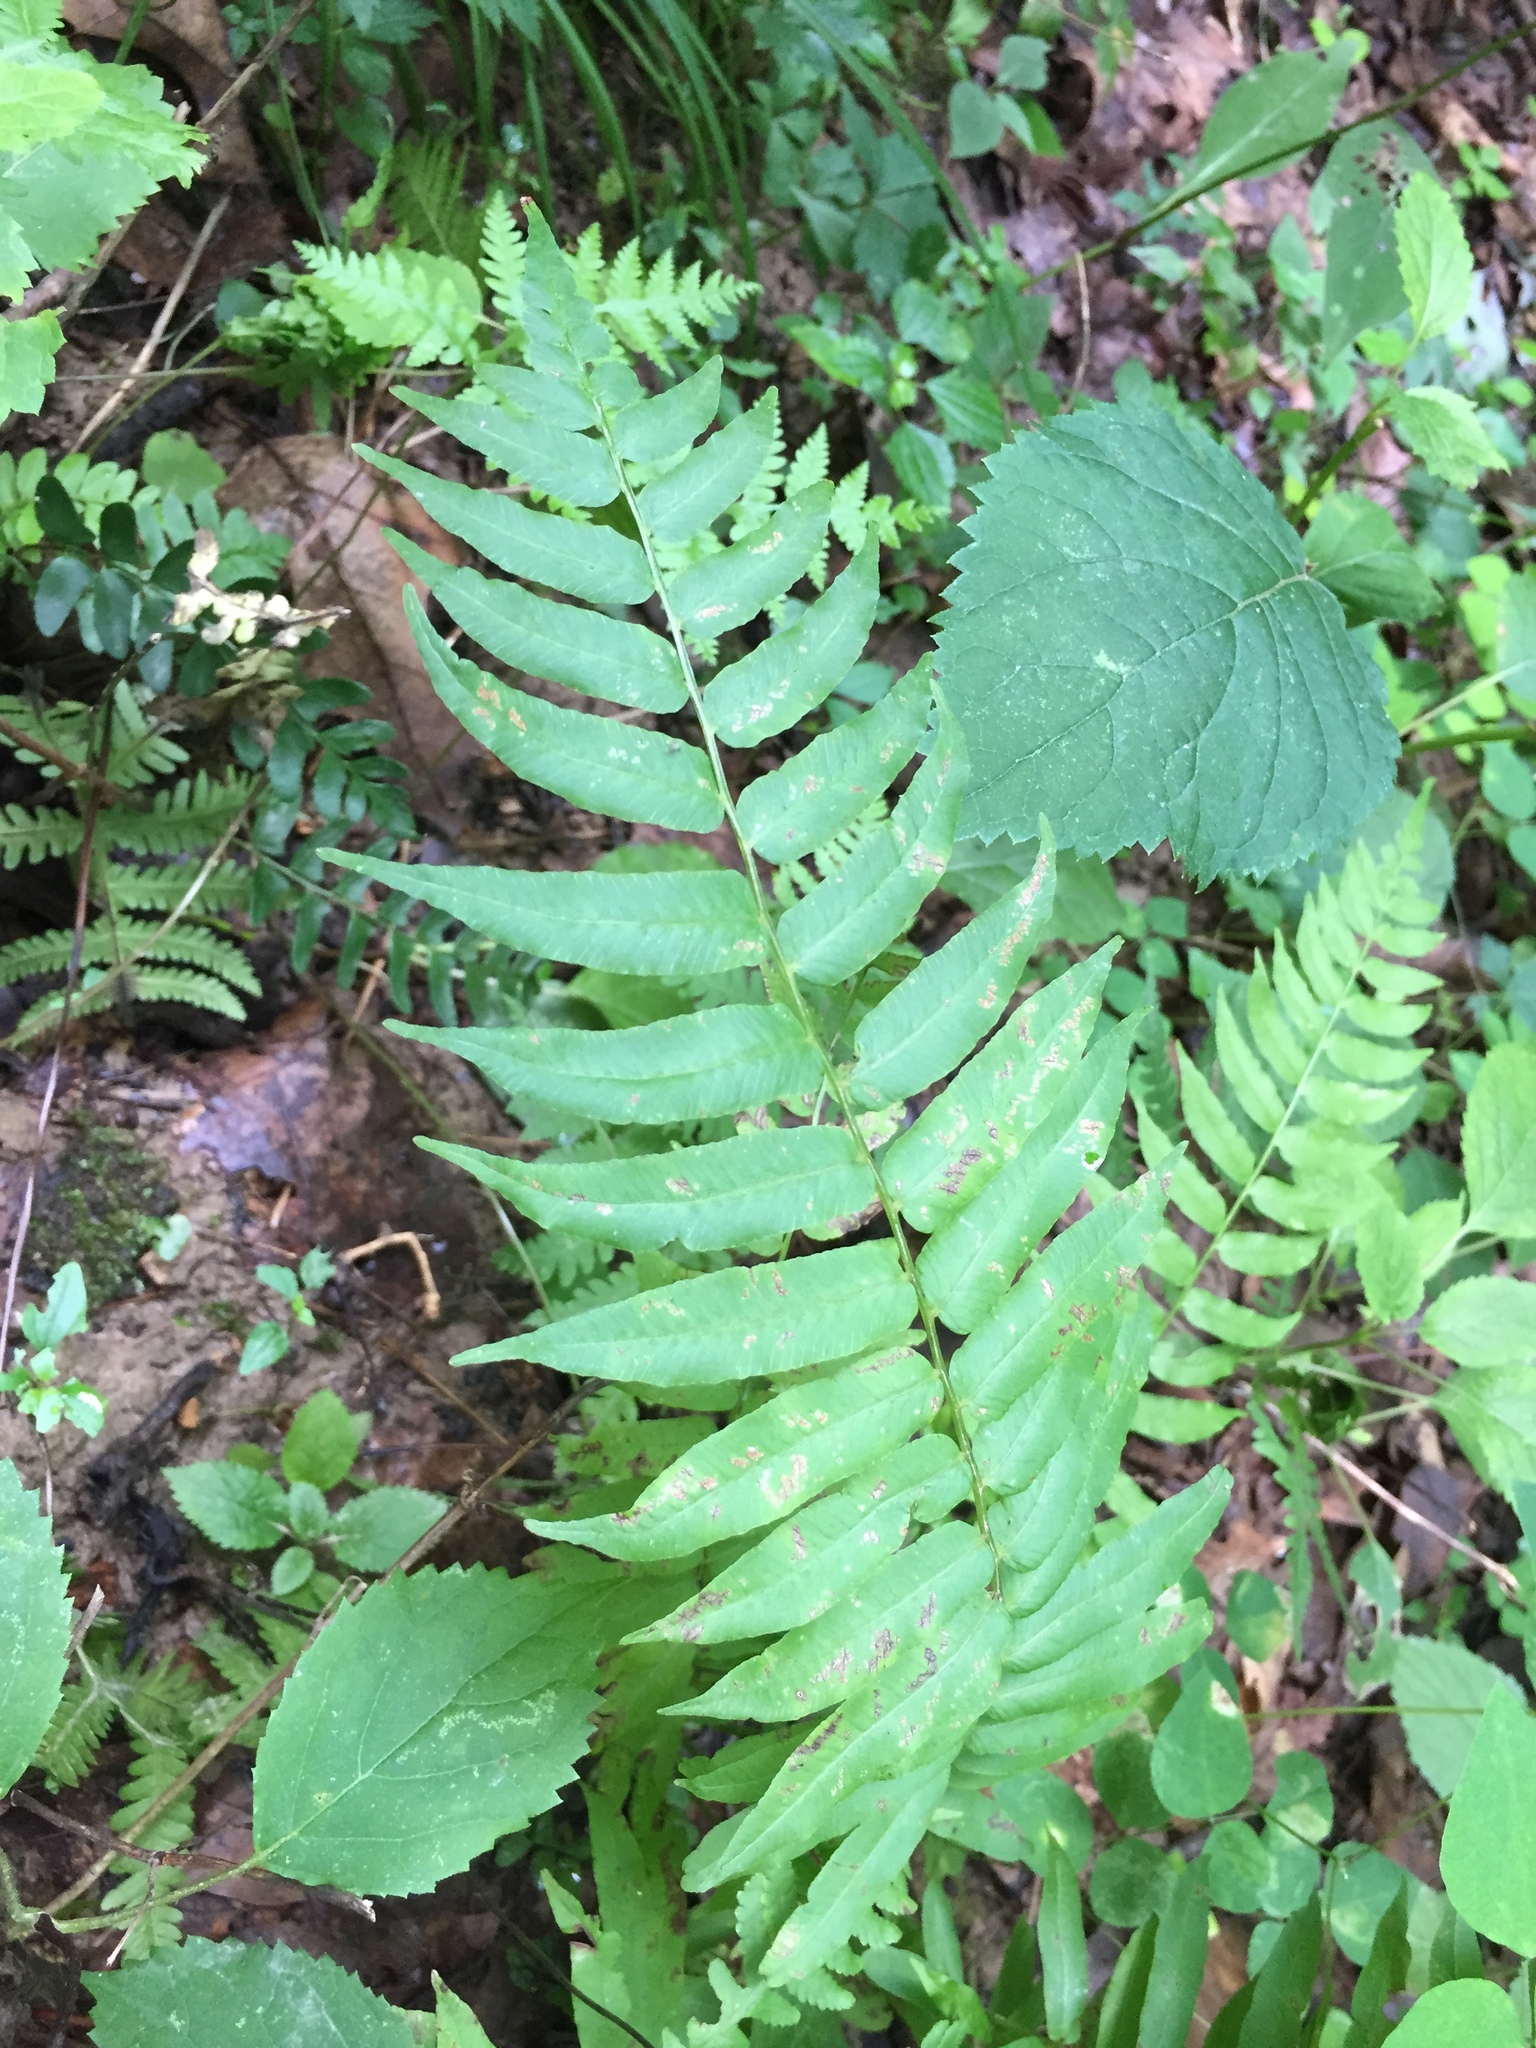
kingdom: Plantae
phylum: Tracheophyta
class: Polypodiopsida
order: Polypodiales
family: Diplaziopsidaceae
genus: Homalosorus
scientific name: Homalosorus pycnocarpos
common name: Glade fern
